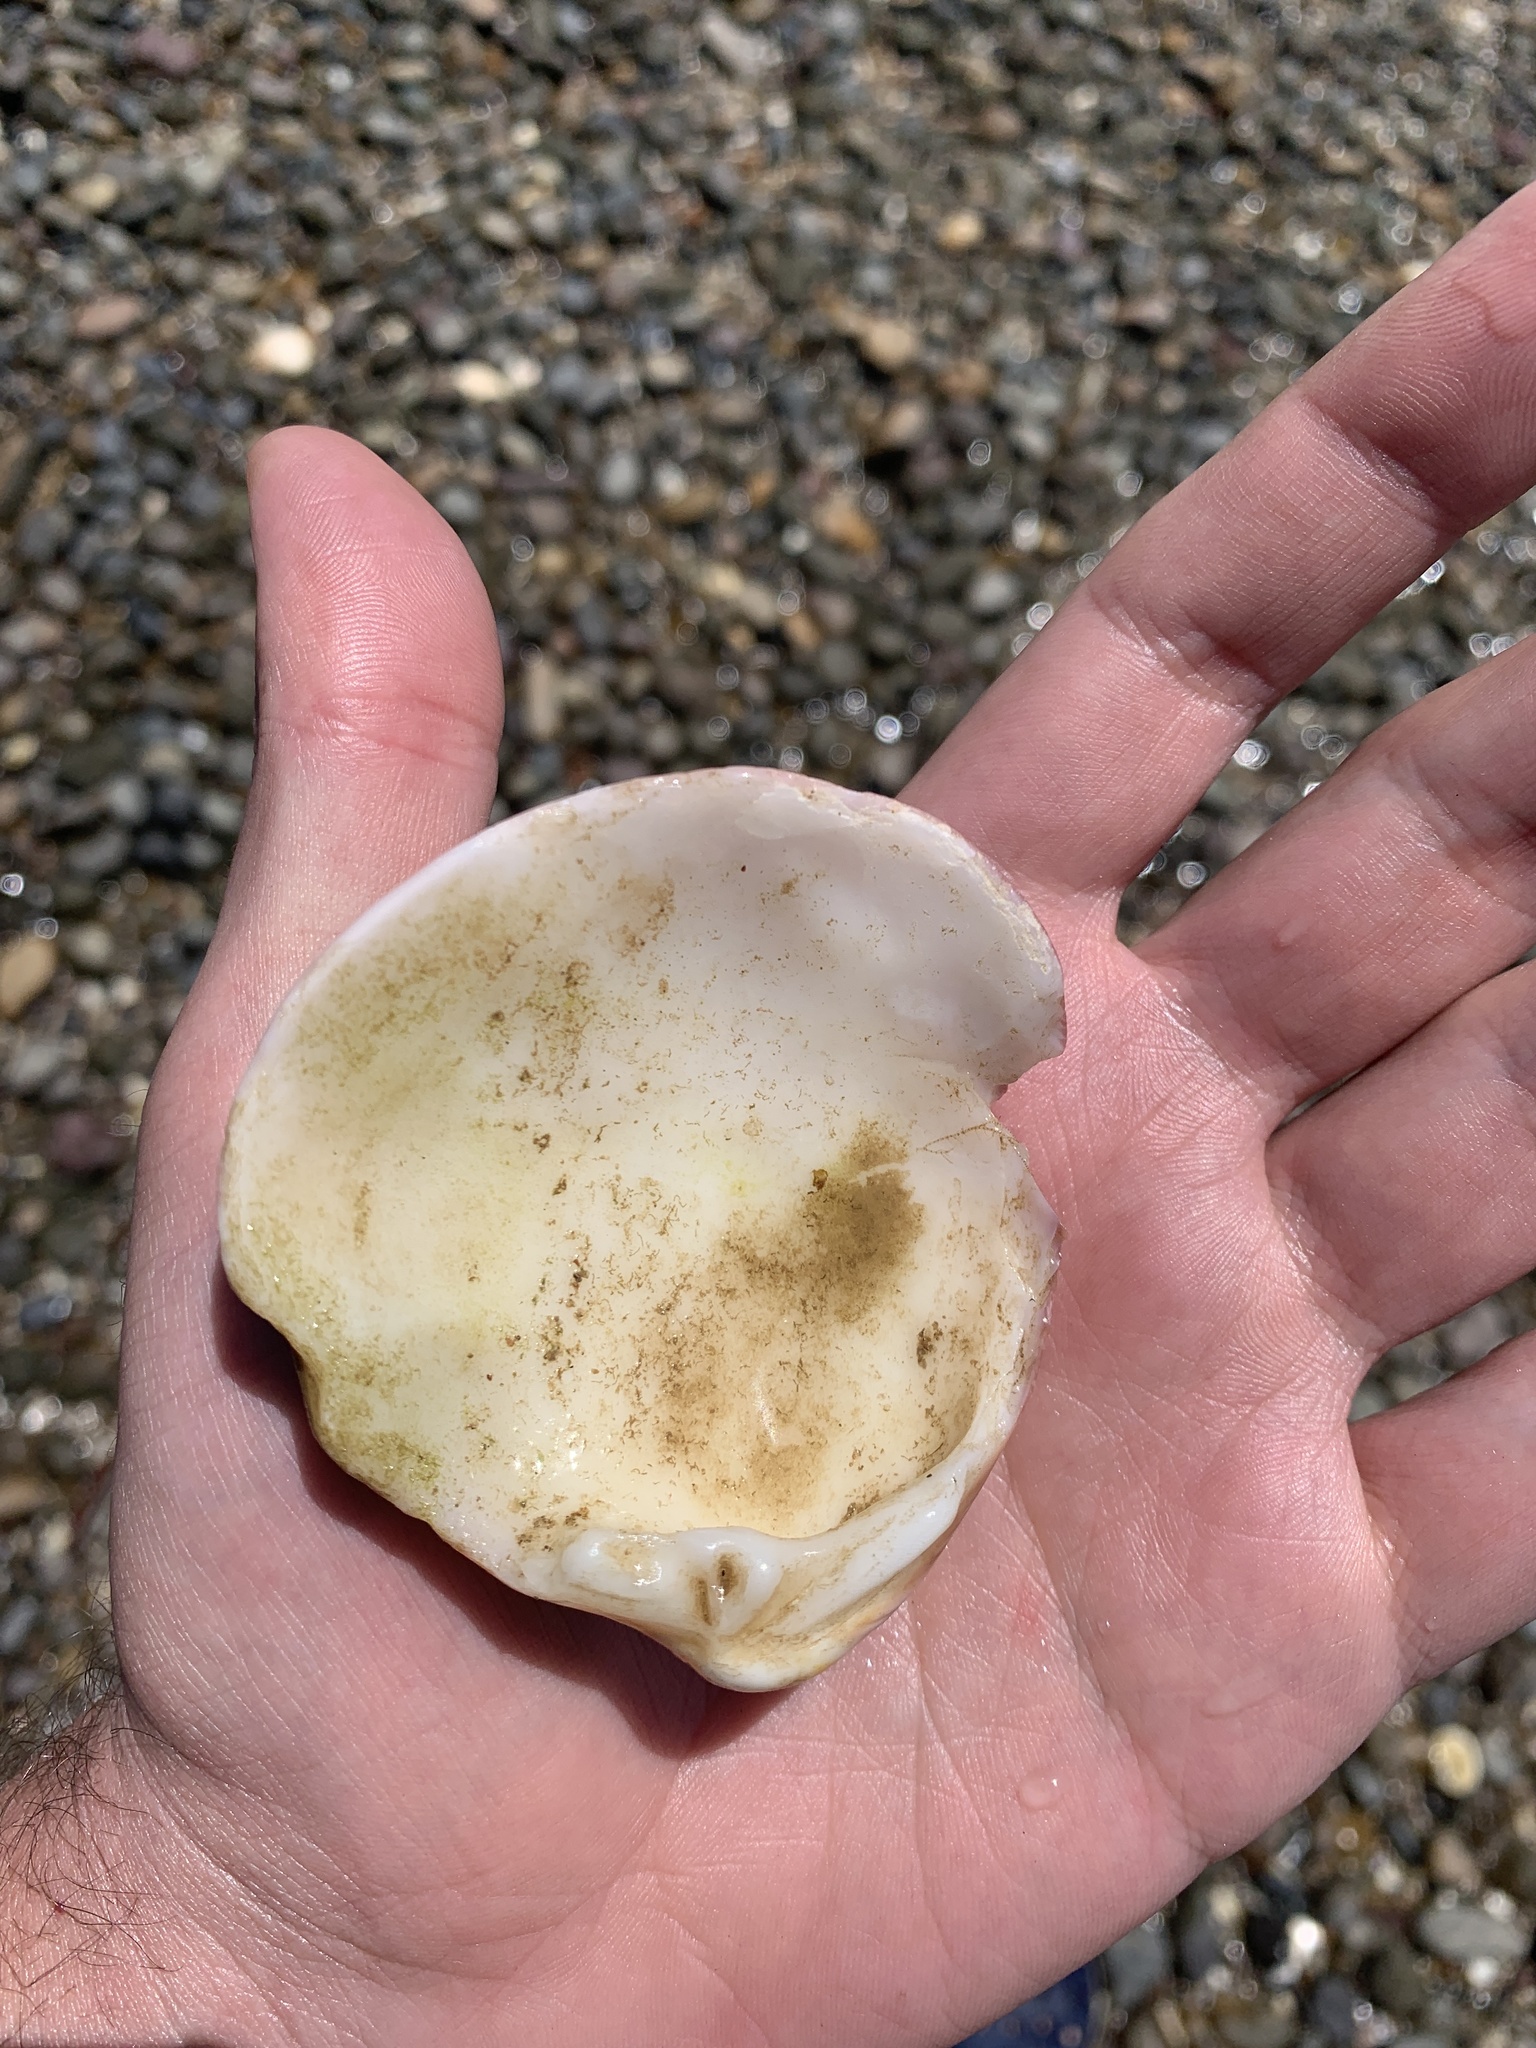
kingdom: Animalia
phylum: Mollusca
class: Bivalvia
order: Venerida
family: Veneridae
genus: Eucallista
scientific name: Eucallista purpurata
